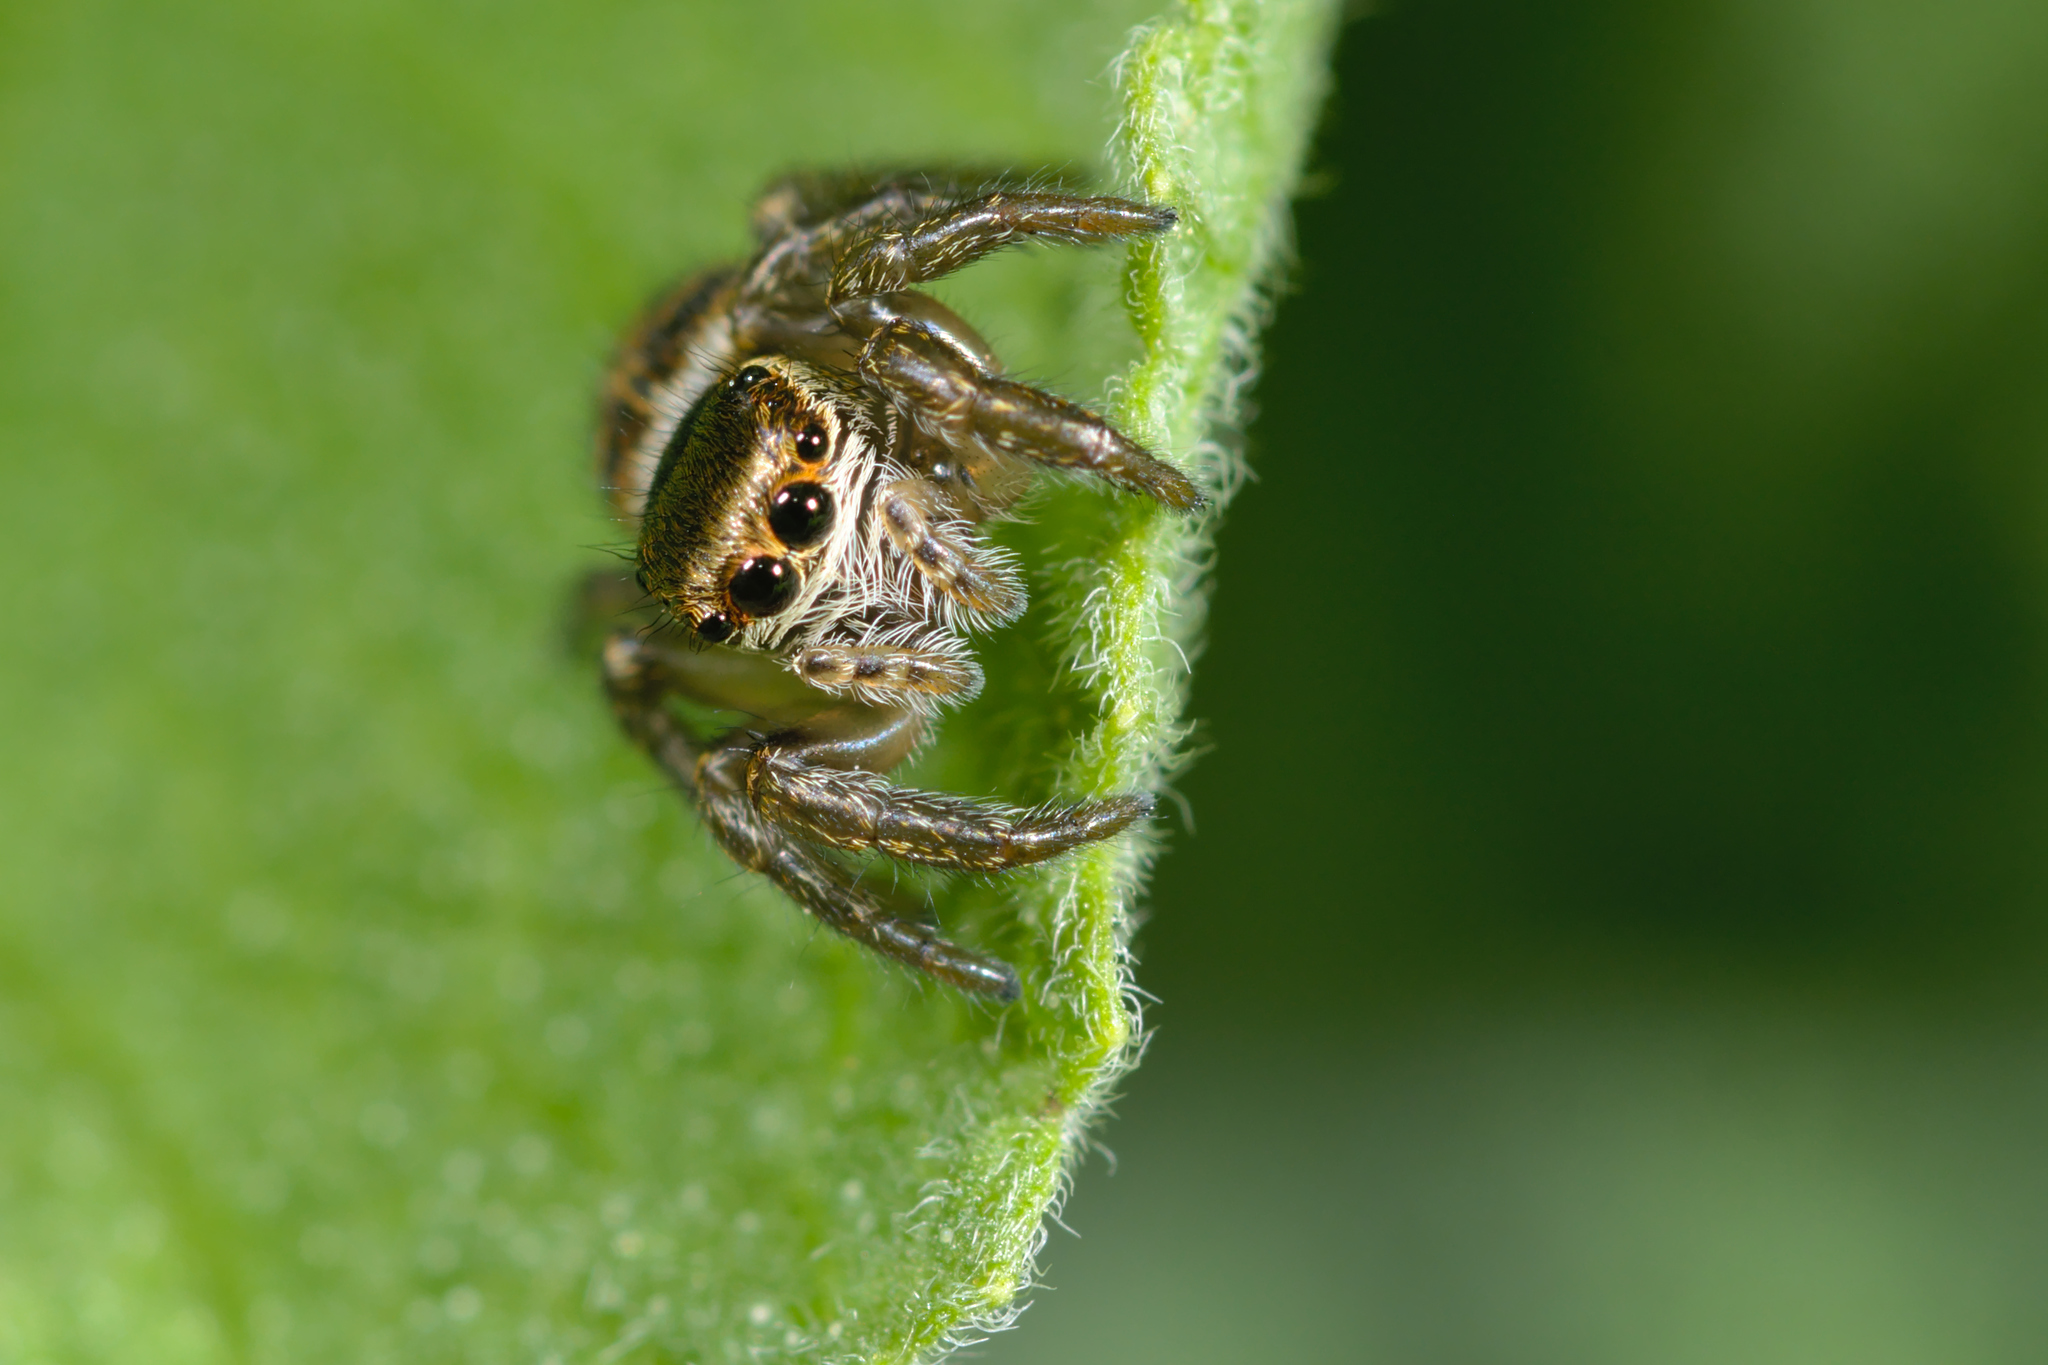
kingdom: Animalia
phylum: Arthropoda
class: Arachnida
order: Araneae
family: Salticidae
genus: Evarcha
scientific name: Evarcha arcuata
